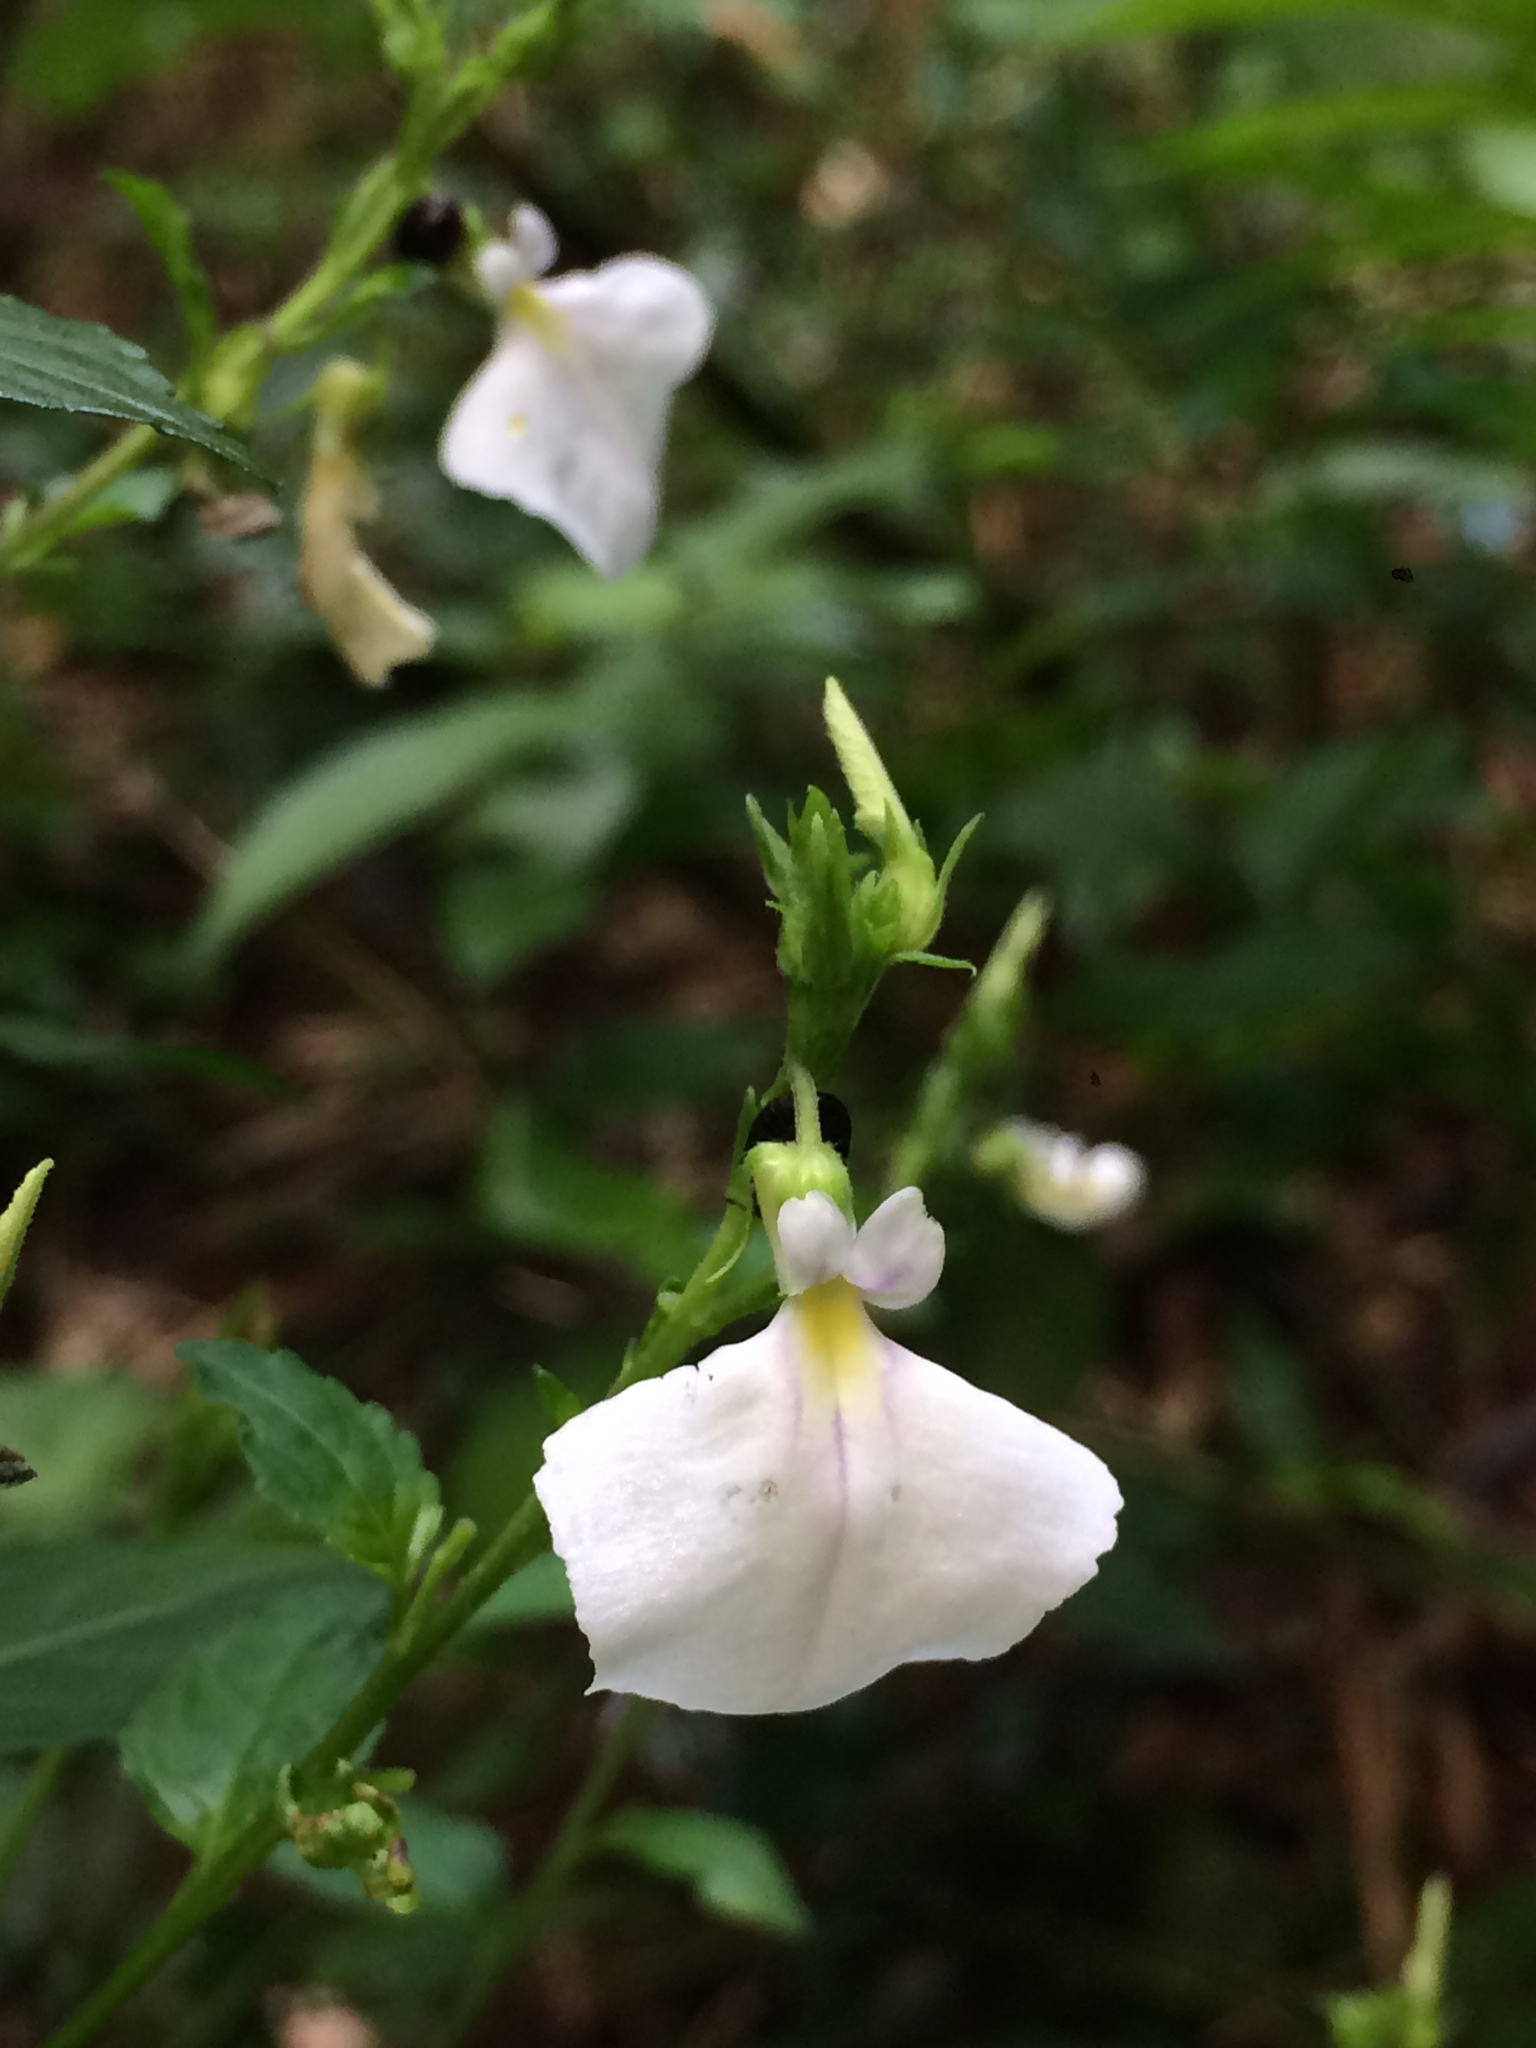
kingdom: Plantae
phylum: Tracheophyta
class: Magnoliopsida
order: Malpighiales
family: Violaceae
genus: Pombalia
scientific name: Pombalia communis
